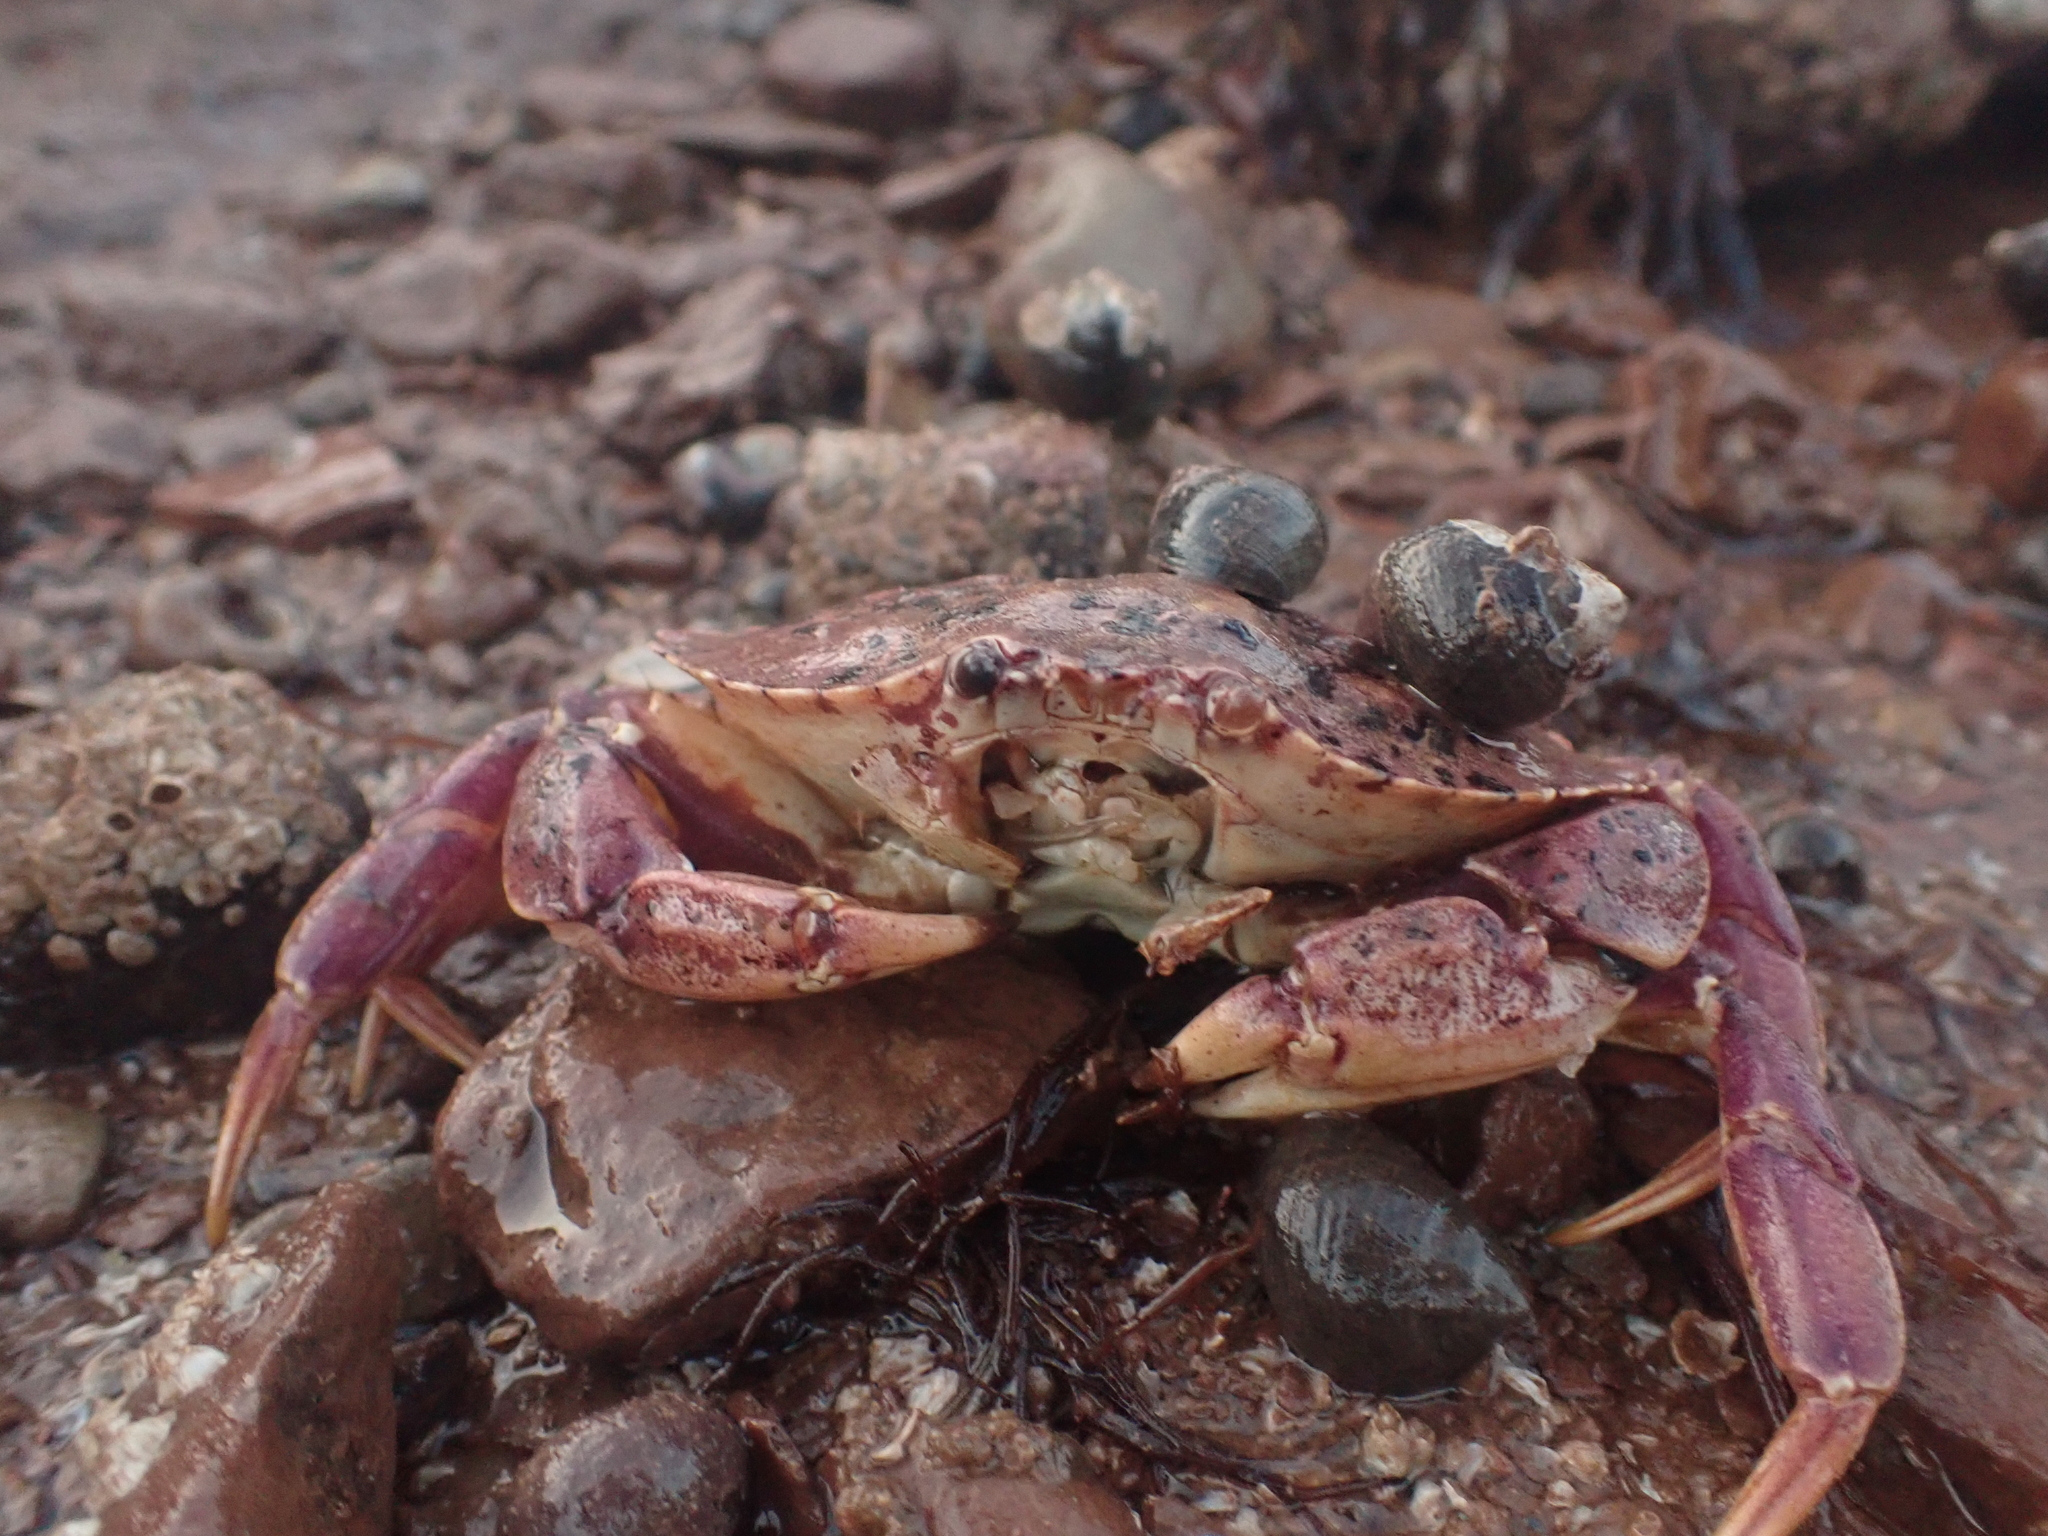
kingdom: Animalia
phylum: Mollusca
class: Gastropoda
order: Littorinimorpha
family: Littorinidae
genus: Littorina
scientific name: Littorina littorea
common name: Common periwinkle
